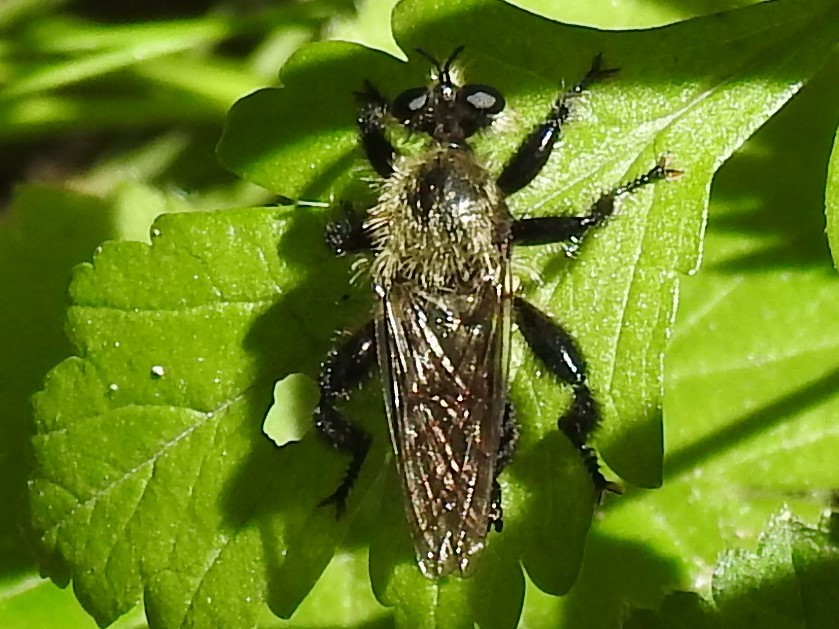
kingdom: Animalia
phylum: Arthropoda
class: Insecta
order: Diptera
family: Asilidae
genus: Laphria
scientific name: Laphria flavicollis
